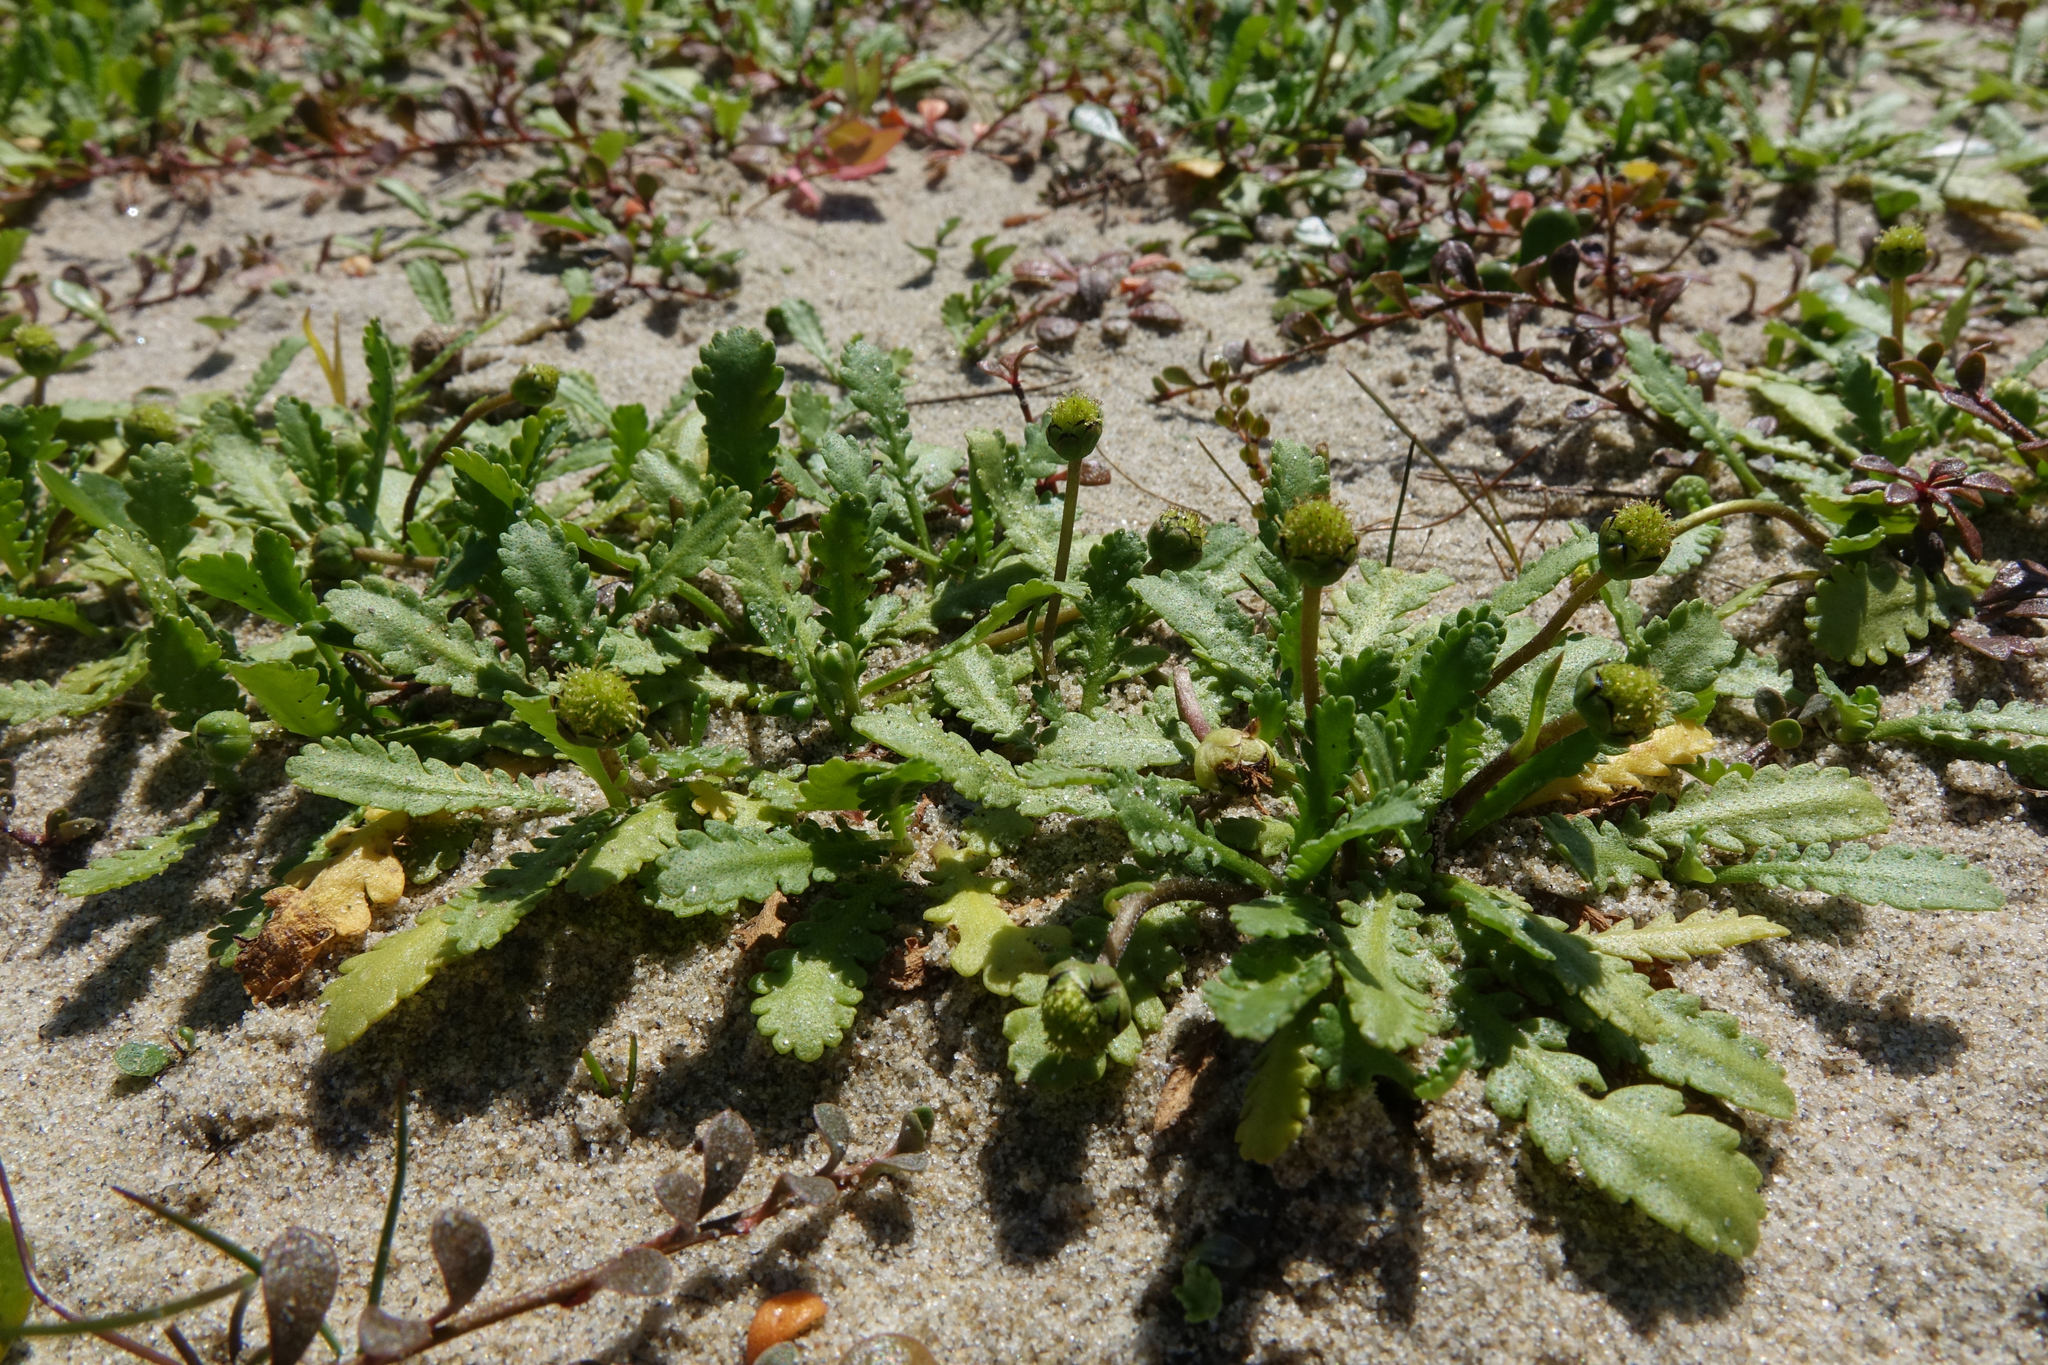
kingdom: Plantae
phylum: Tracheophyta
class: Magnoliopsida
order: Asterales
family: Asteraceae
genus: Leptinella
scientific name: Leptinella dioica
